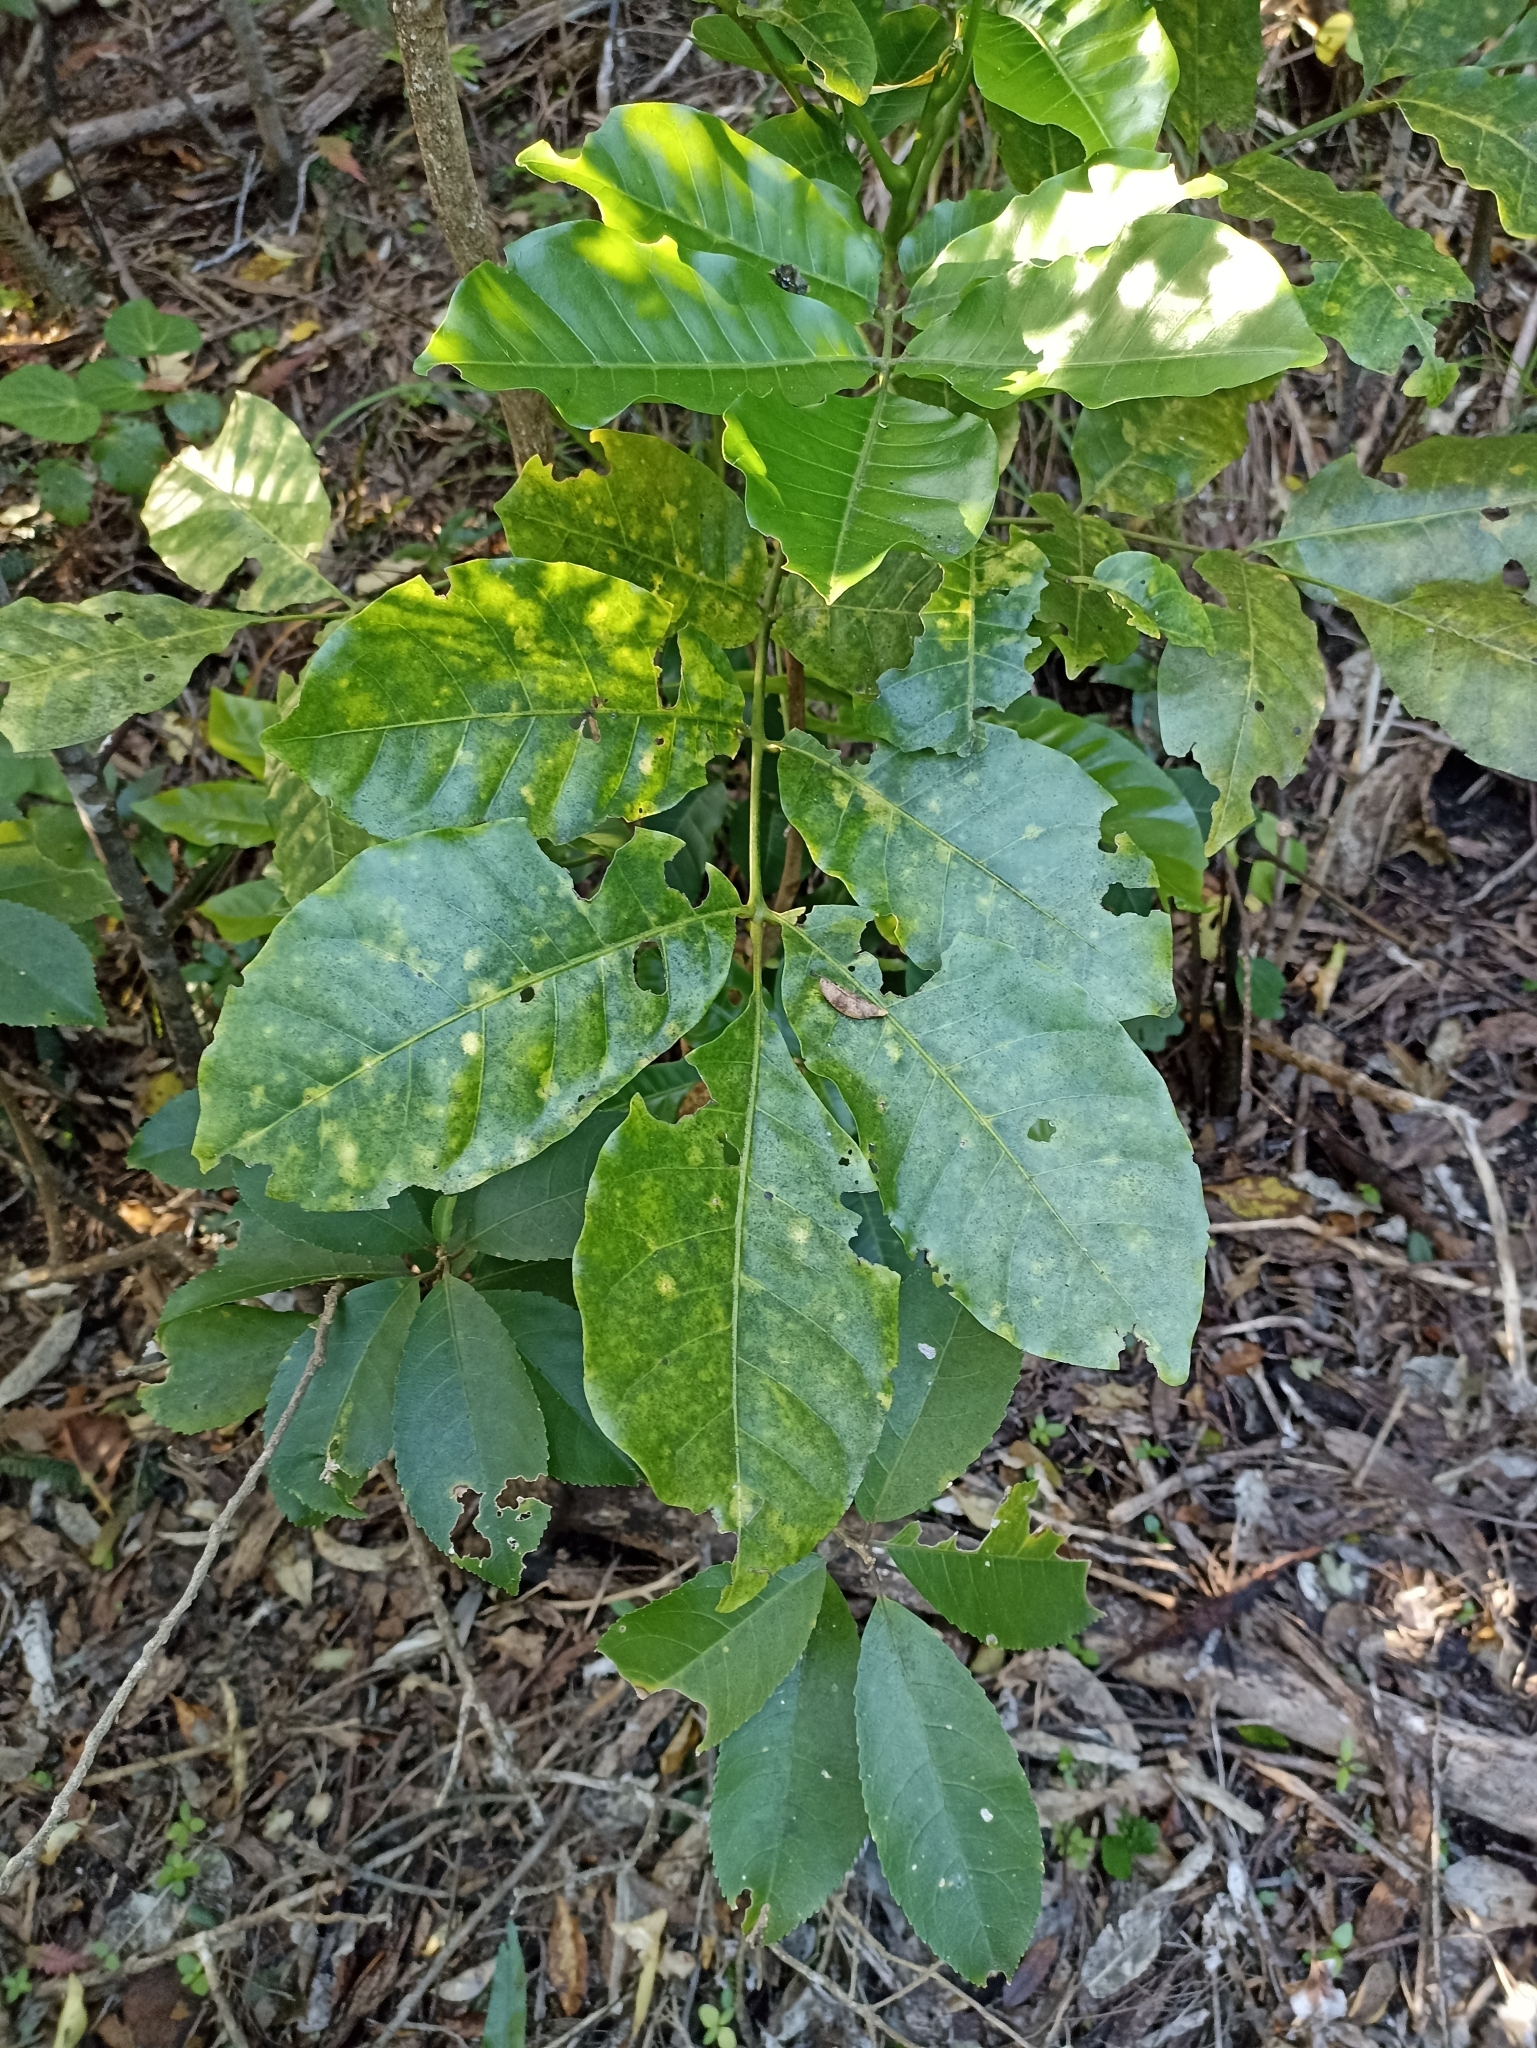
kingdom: Plantae
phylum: Tracheophyta
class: Magnoliopsida
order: Sapindales
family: Meliaceae
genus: Didymocheton
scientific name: Didymocheton spectabilis
